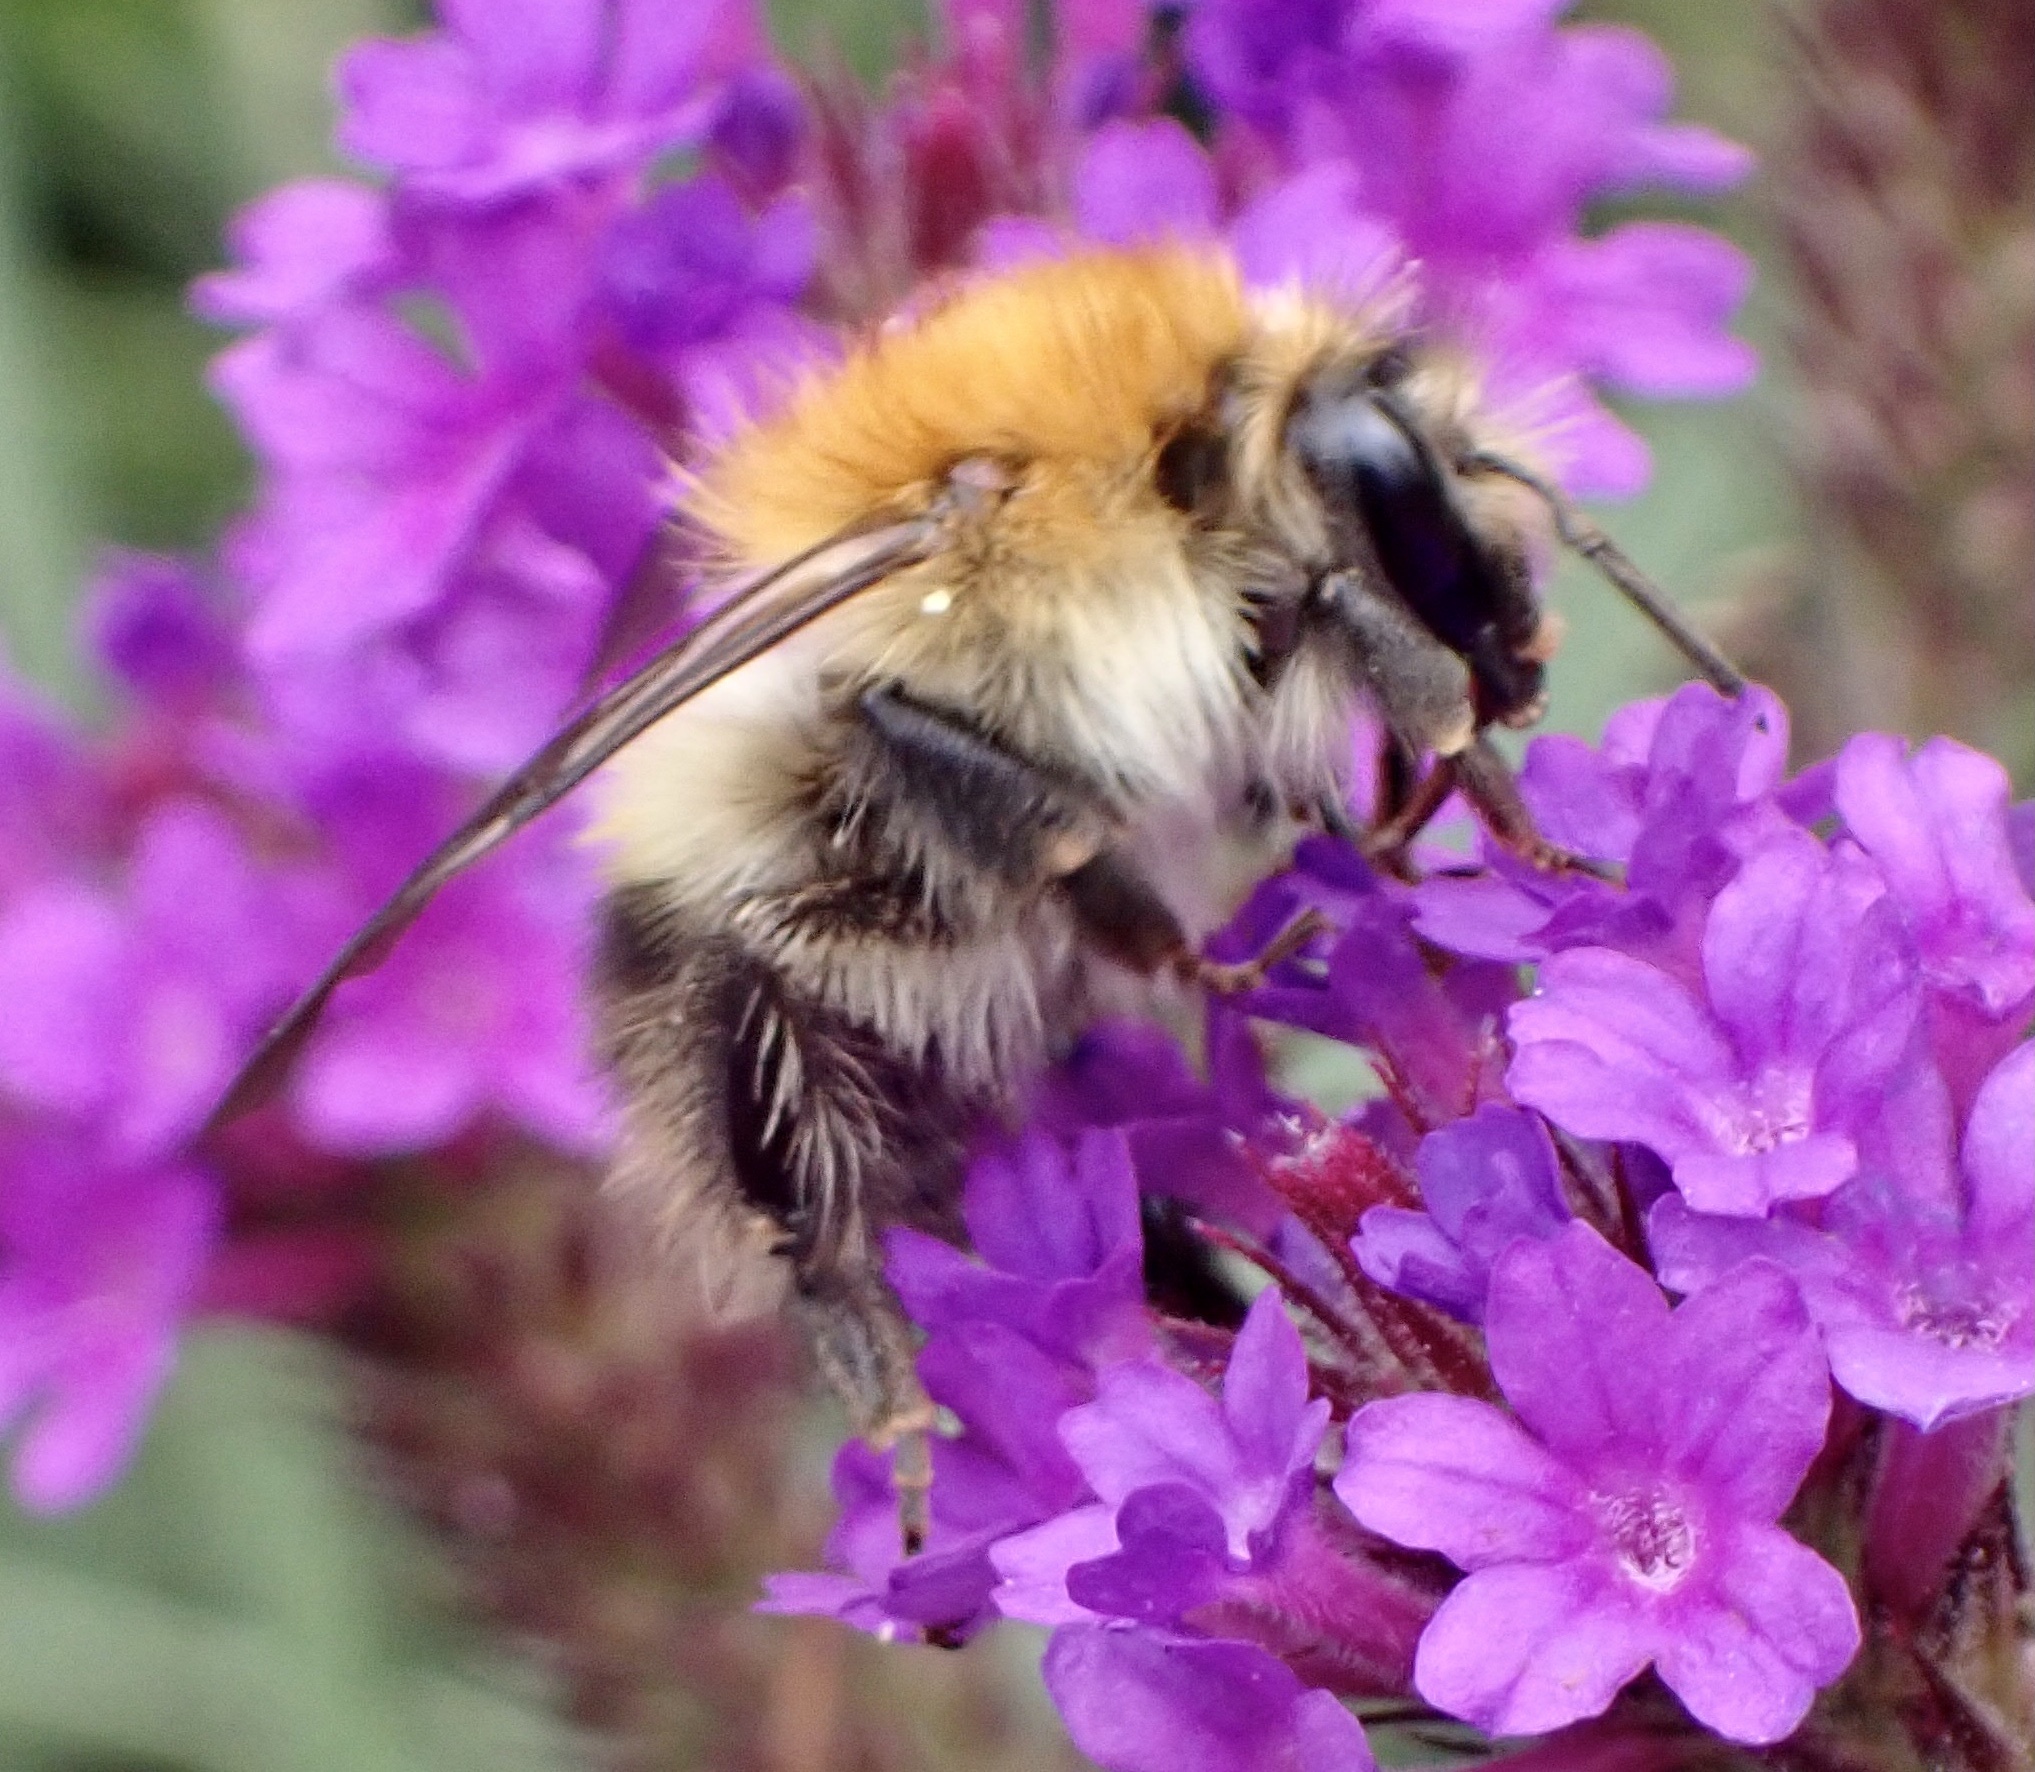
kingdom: Animalia
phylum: Arthropoda
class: Insecta
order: Hymenoptera
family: Apidae
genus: Bombus
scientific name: Bombus pascuorum
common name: Common carder bee
